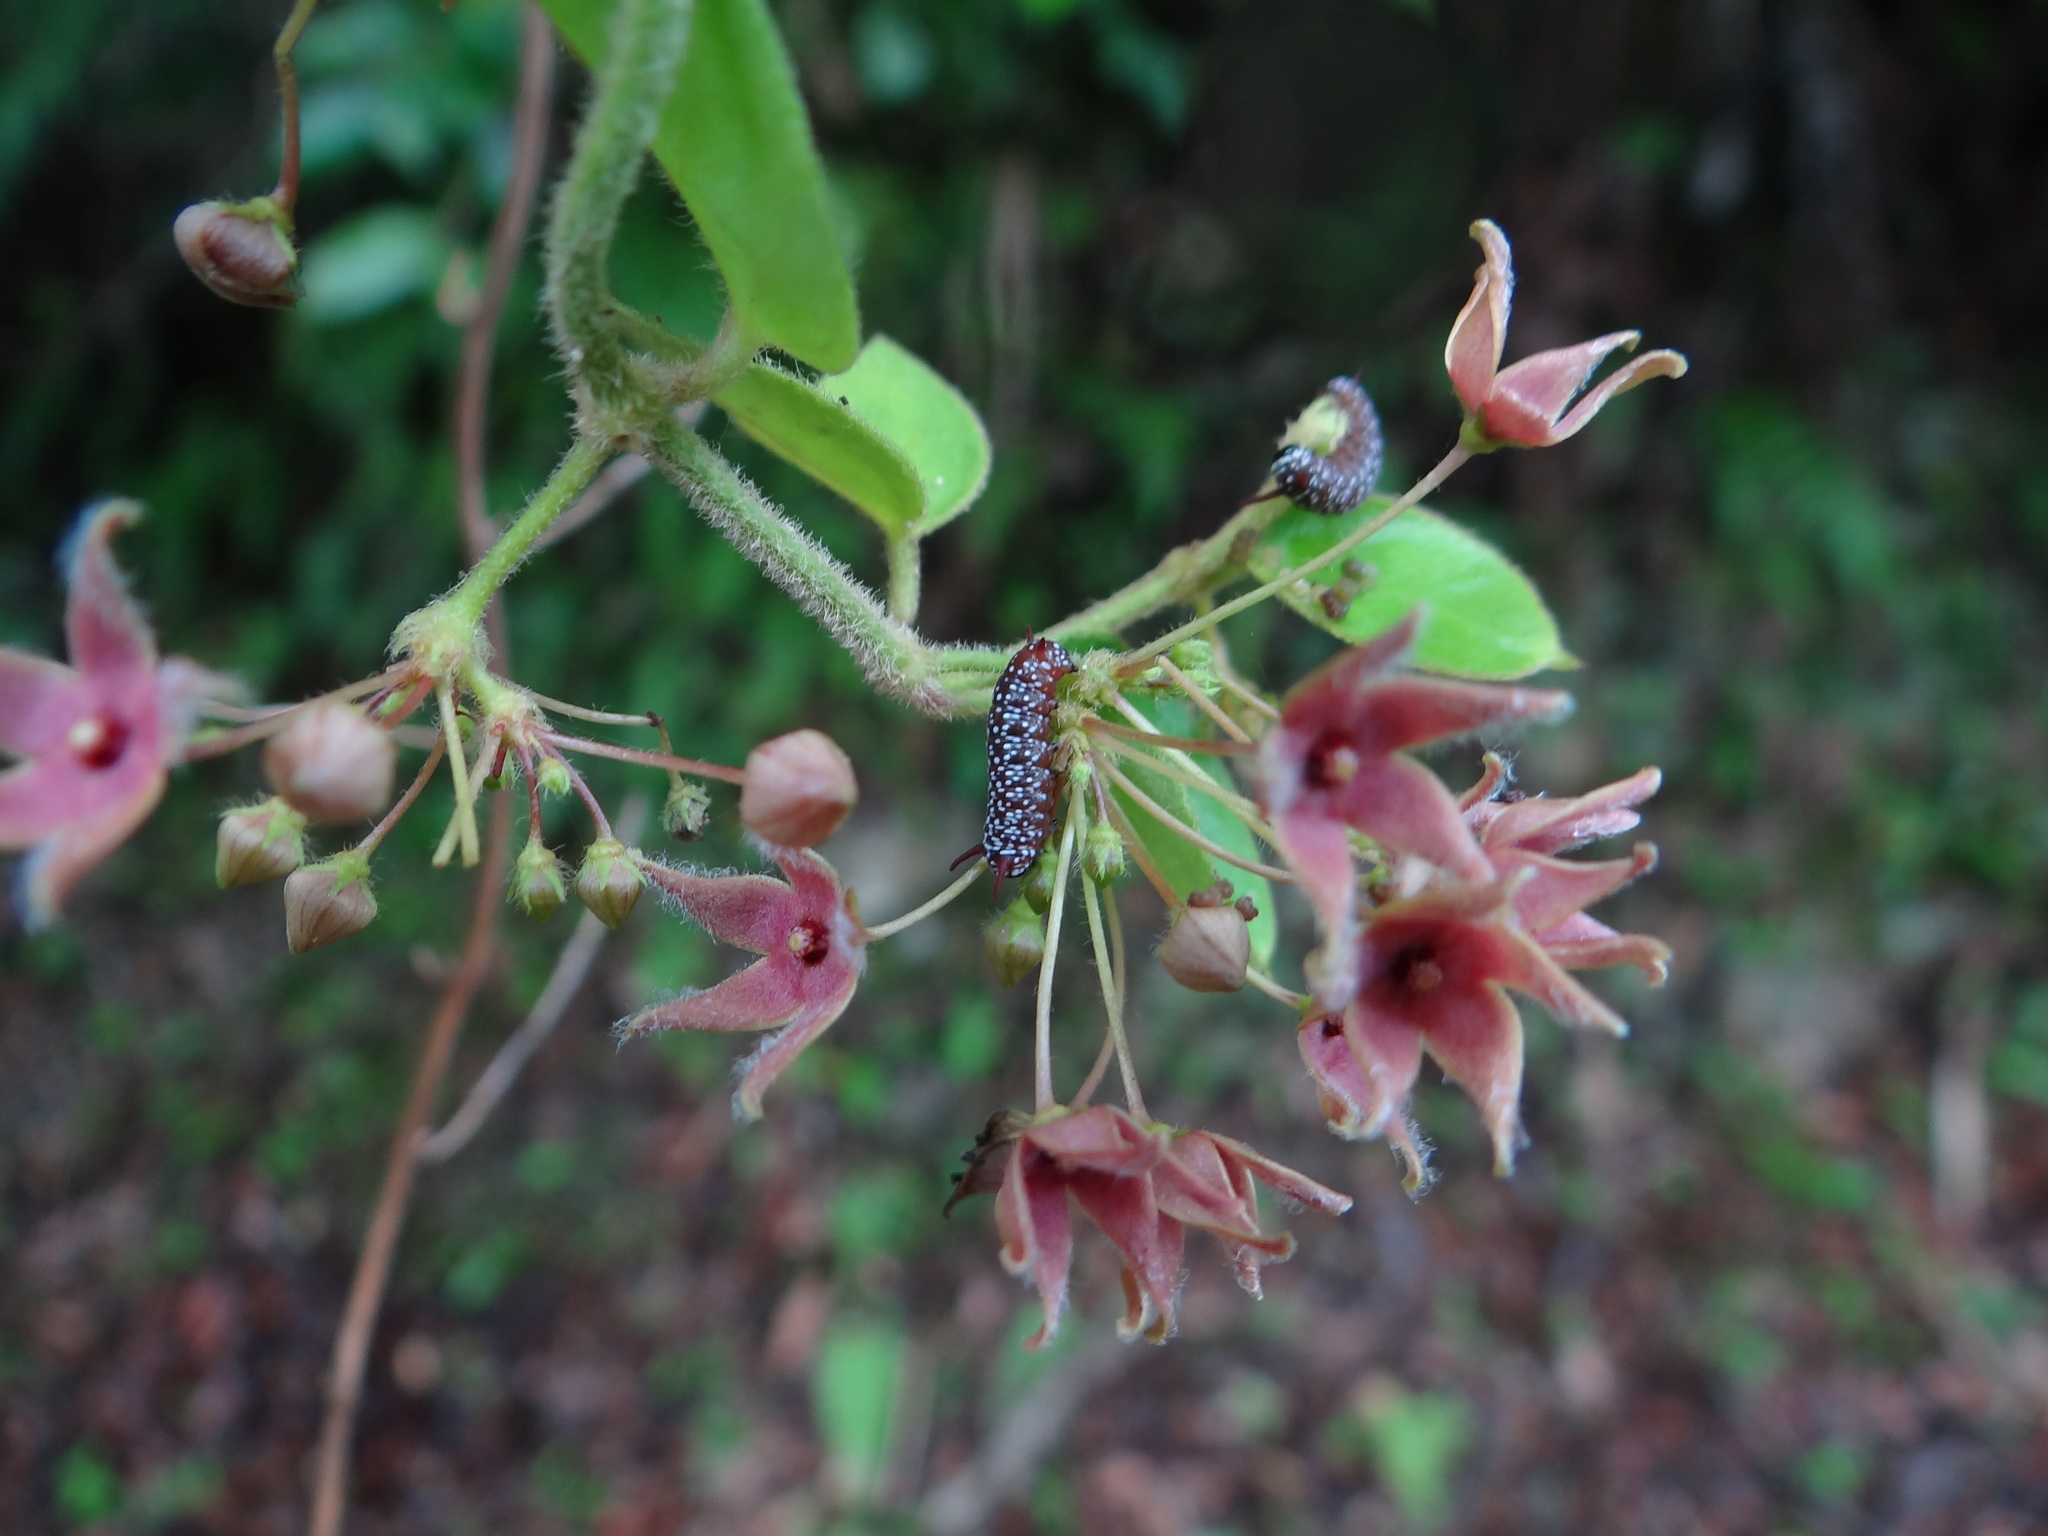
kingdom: Animalia
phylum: Arthropoda
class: Insecta
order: Lepidoptera
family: Nymphalidae
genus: Ideopsis
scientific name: Ideopsis similis
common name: Ceylon blue glassy tiger
